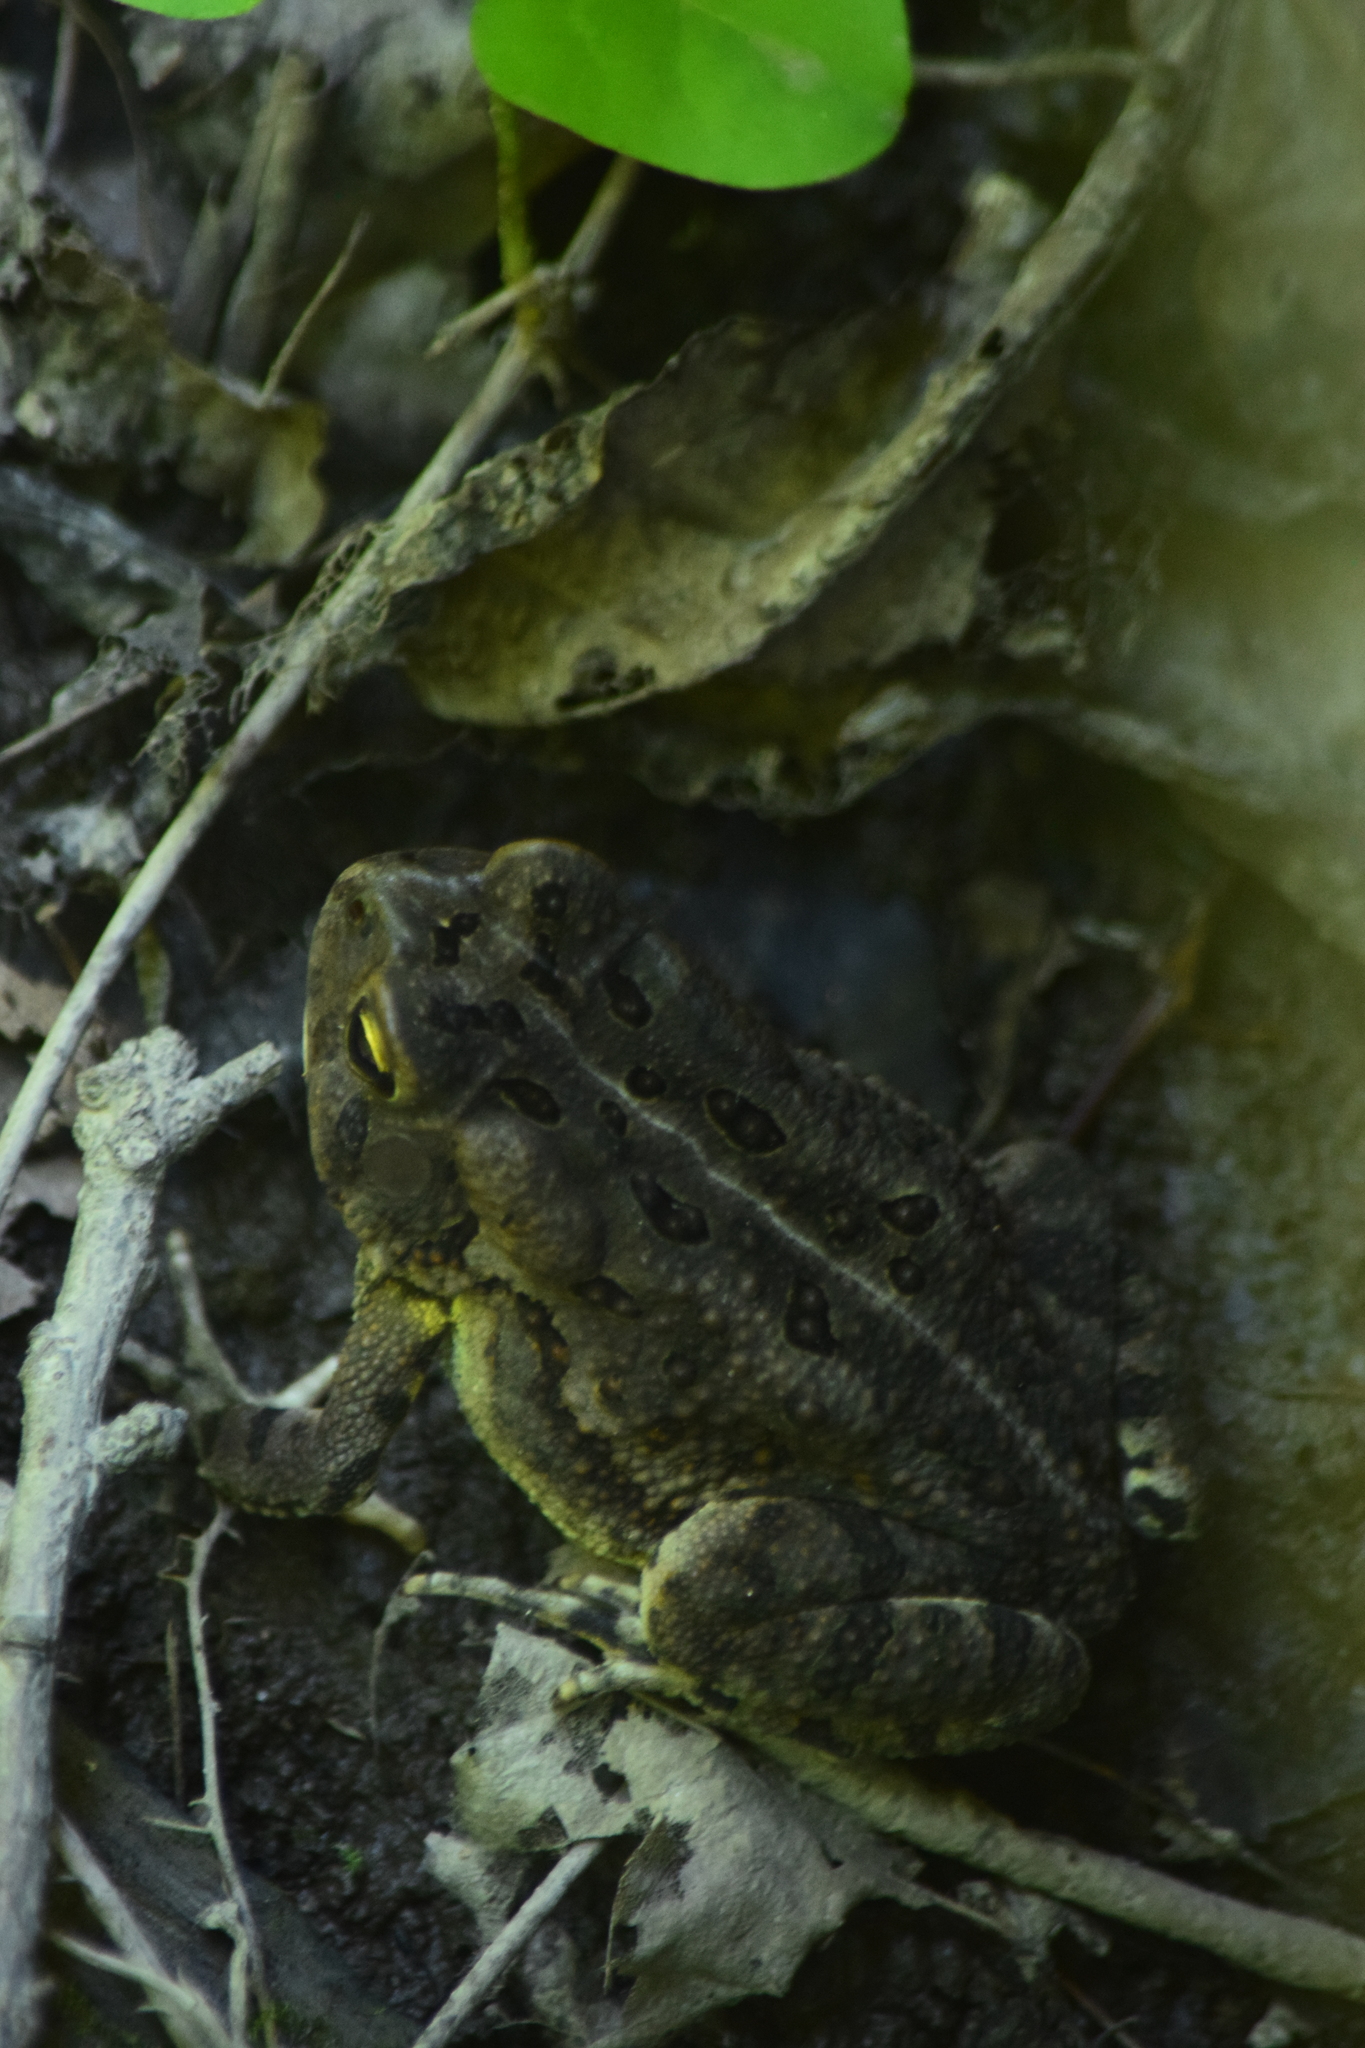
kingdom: Animalia
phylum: Chordata
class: Amphibia
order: Anura
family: Bufonidae
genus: Anaxyrus
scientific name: Anaxyrus fowleri
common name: Fowler's toad
